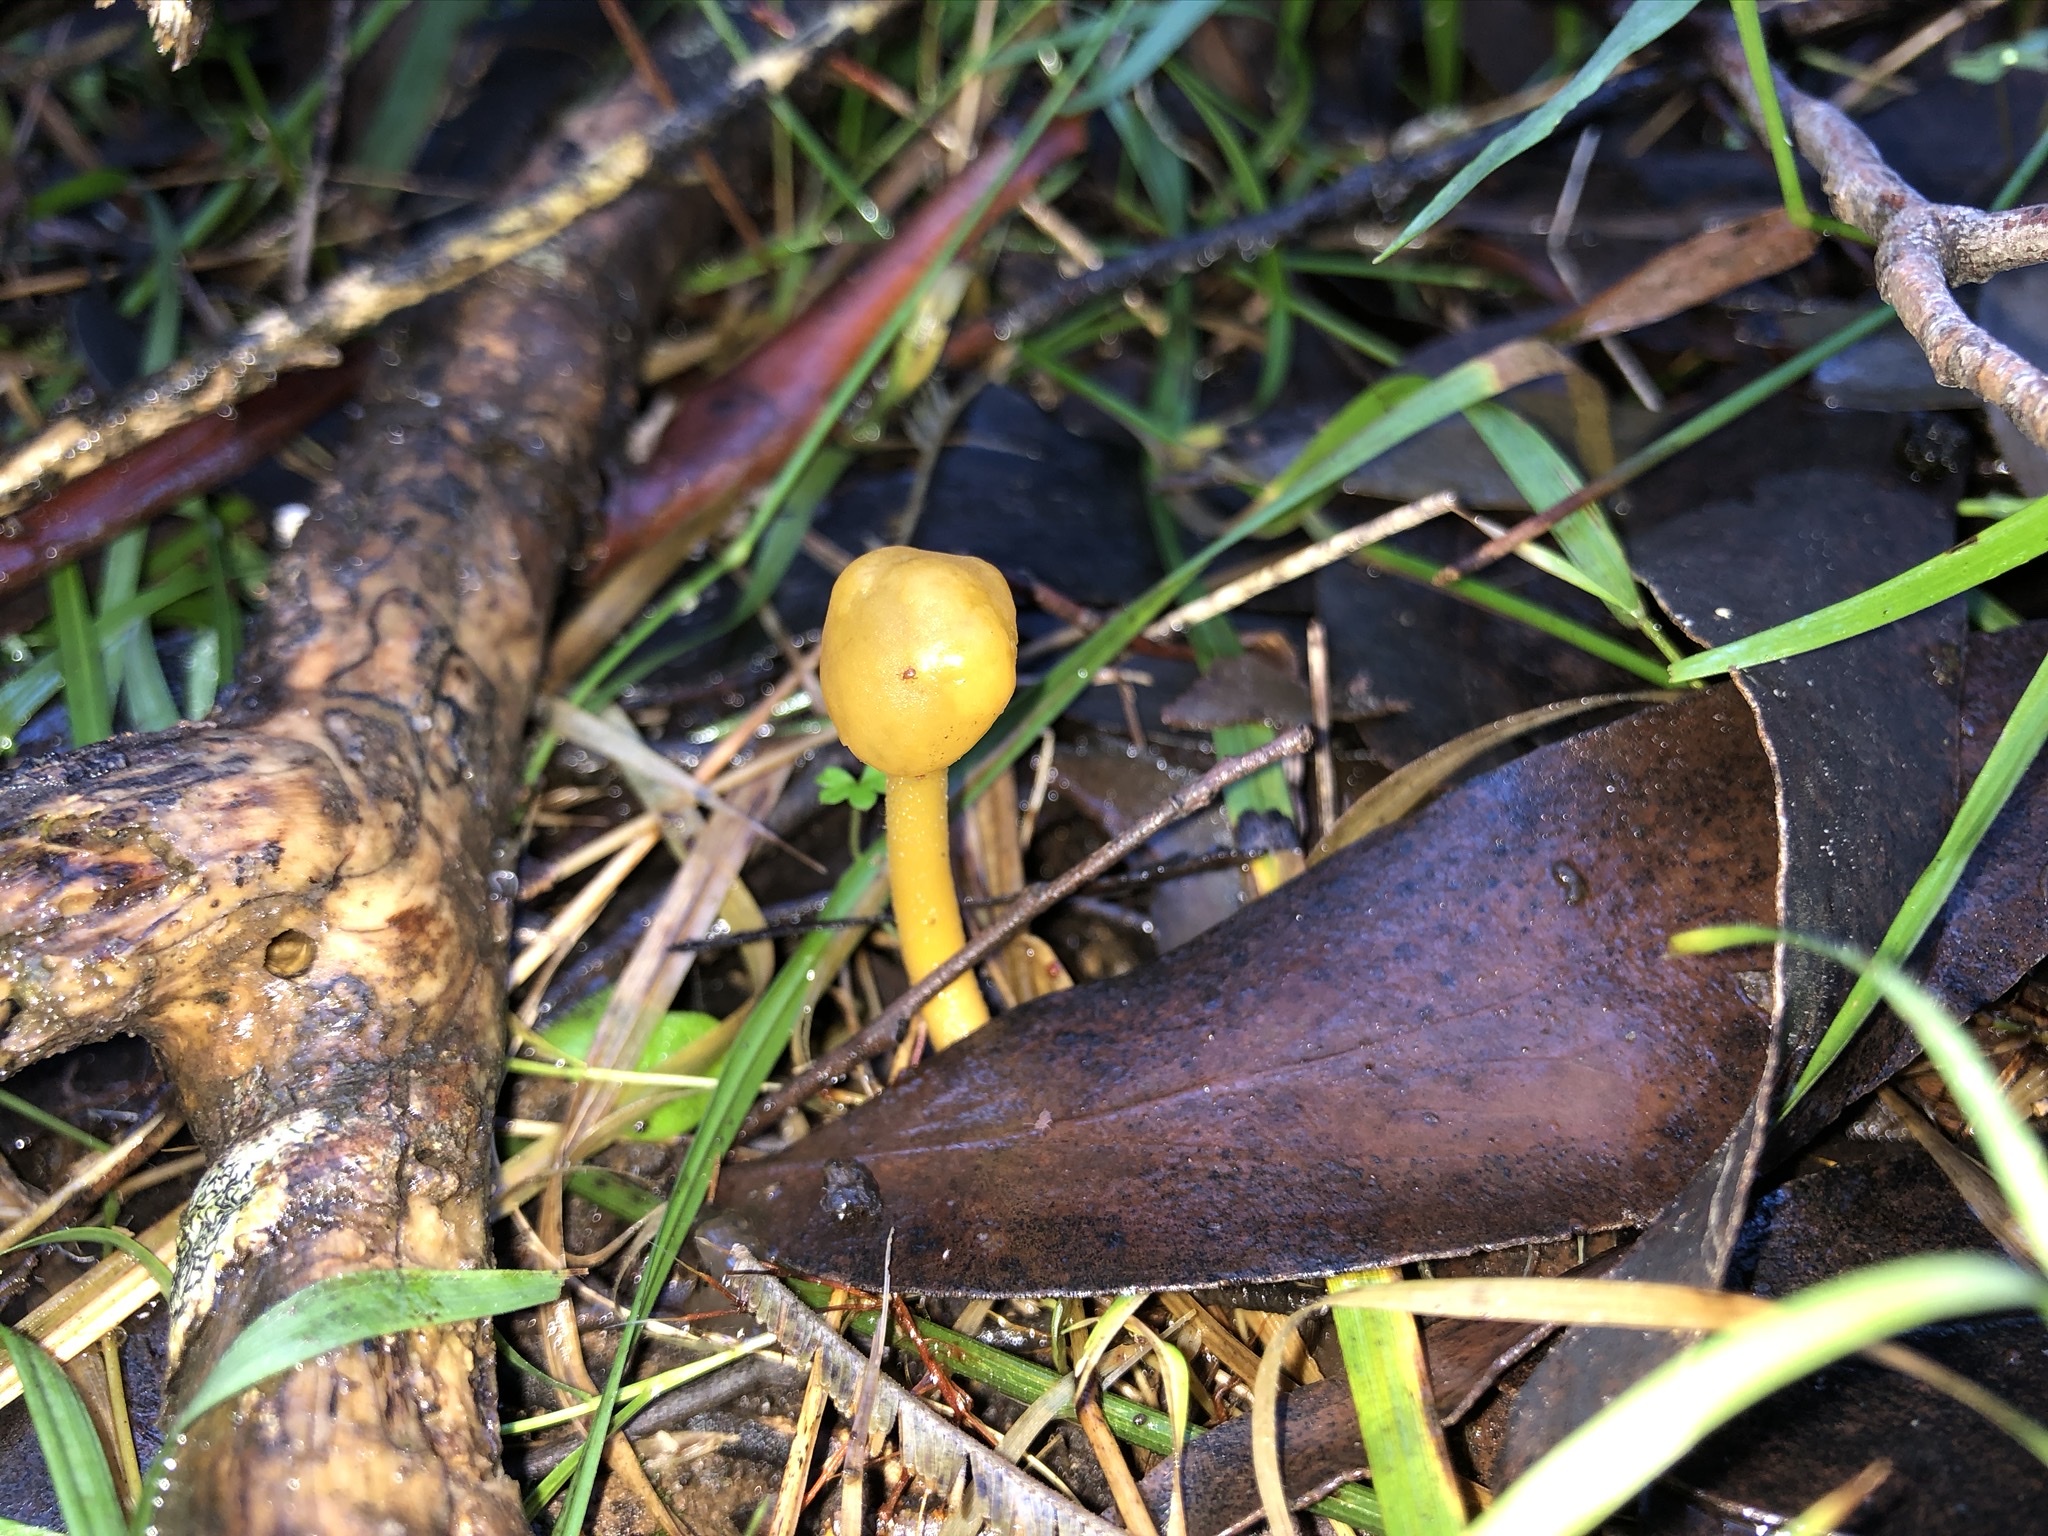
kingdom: Fungi
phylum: Ascomycota
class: Leotiomycetes
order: Leotiales
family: Leotiaceae
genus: Leotia
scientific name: Leotia lubrica
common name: Jellybaby
